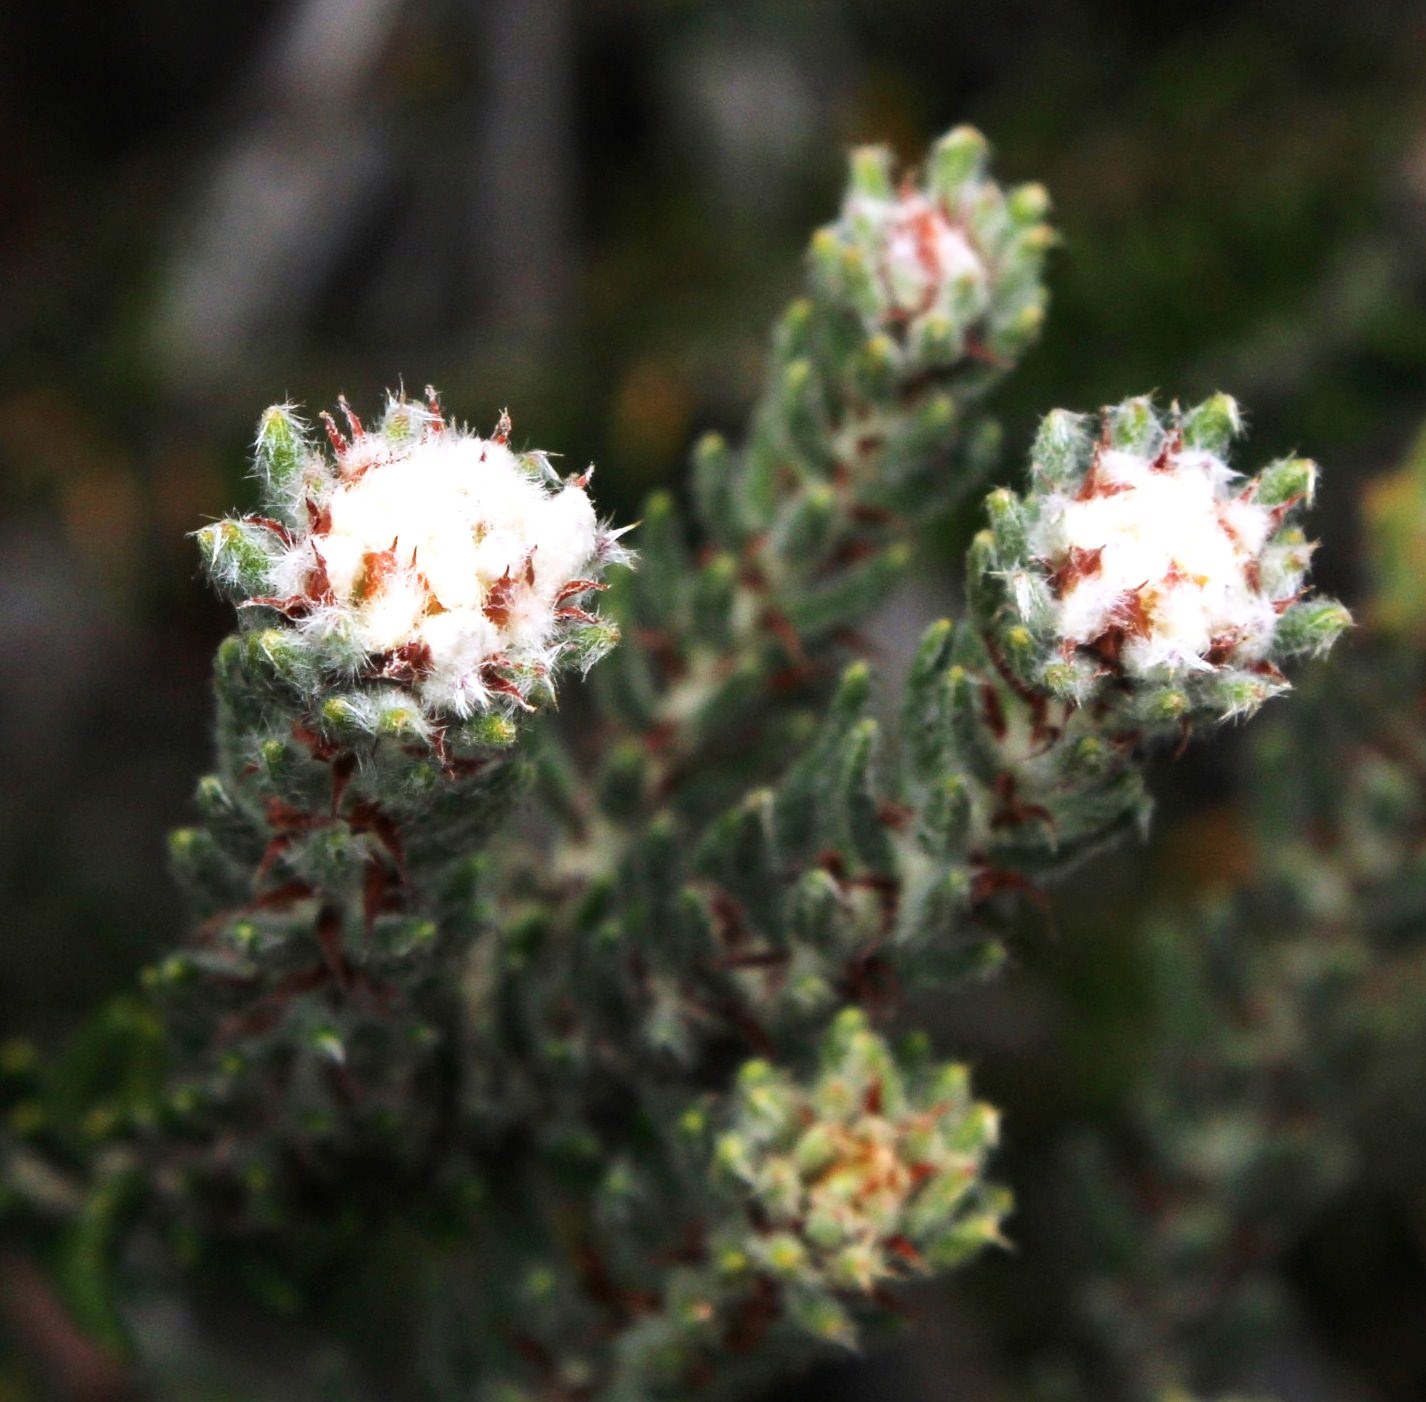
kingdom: Plantae
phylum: Tracheophyta
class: Magnoliopsida
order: Rosales
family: Rhamnaceae
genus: Trichocephalus
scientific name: Trichocephalus stipularis
